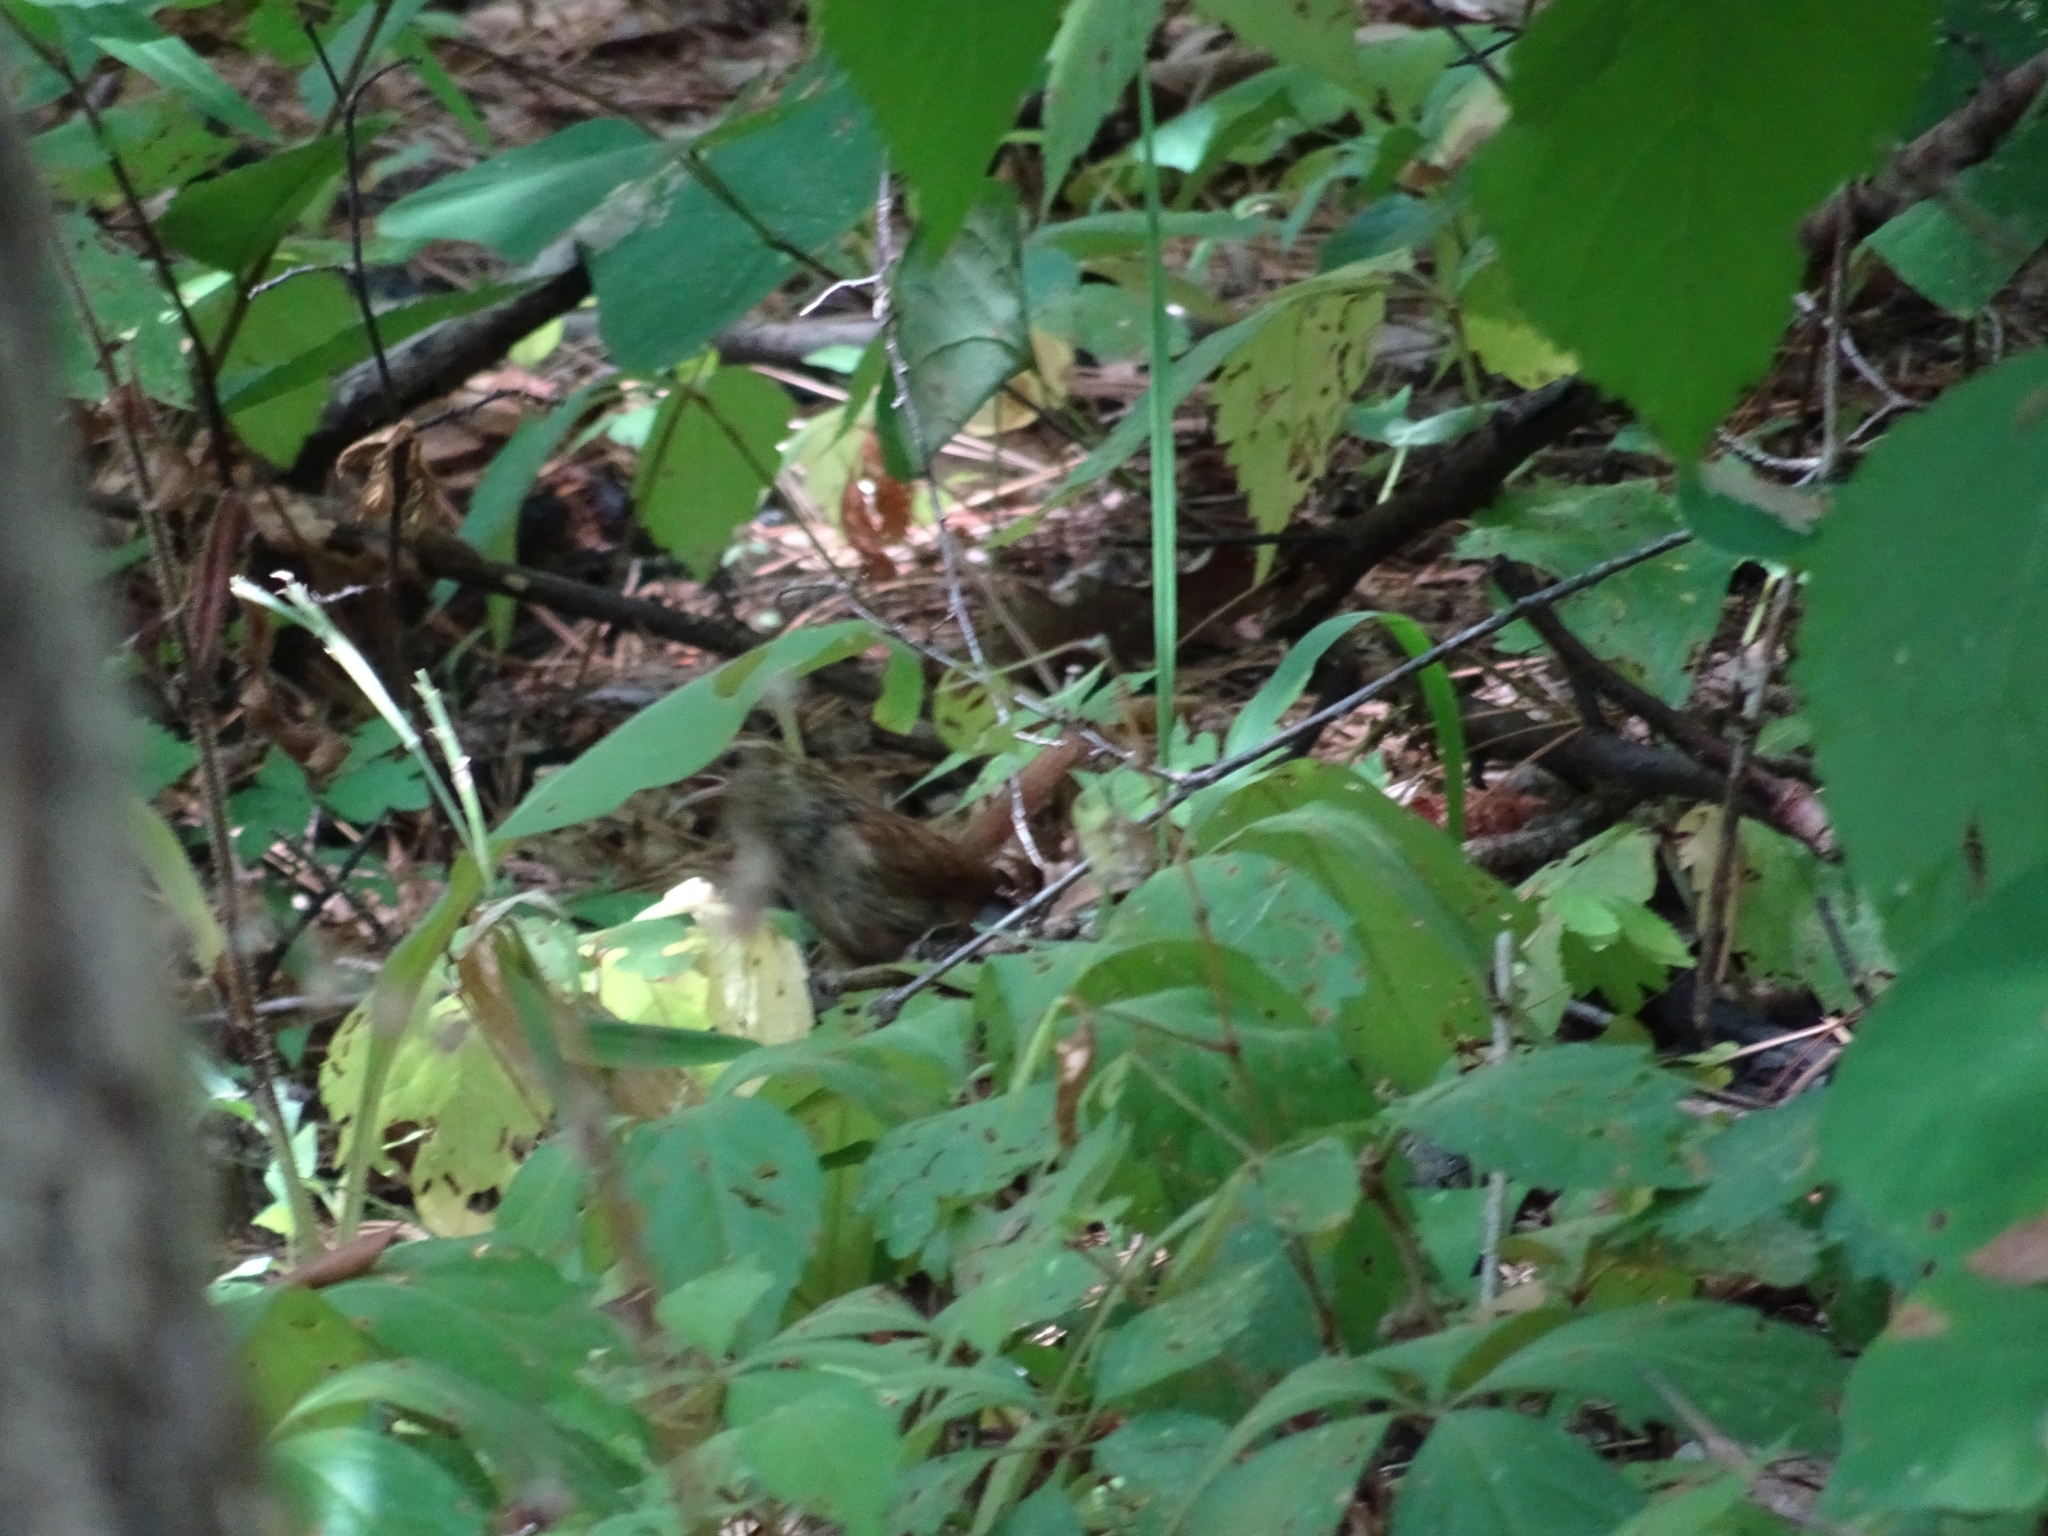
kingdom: Animalia
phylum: Chordata
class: Aves
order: Passeriformes
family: Troglodytidae
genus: Thryothorus
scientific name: Thryothorus ludovicianus
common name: Carolina wren
